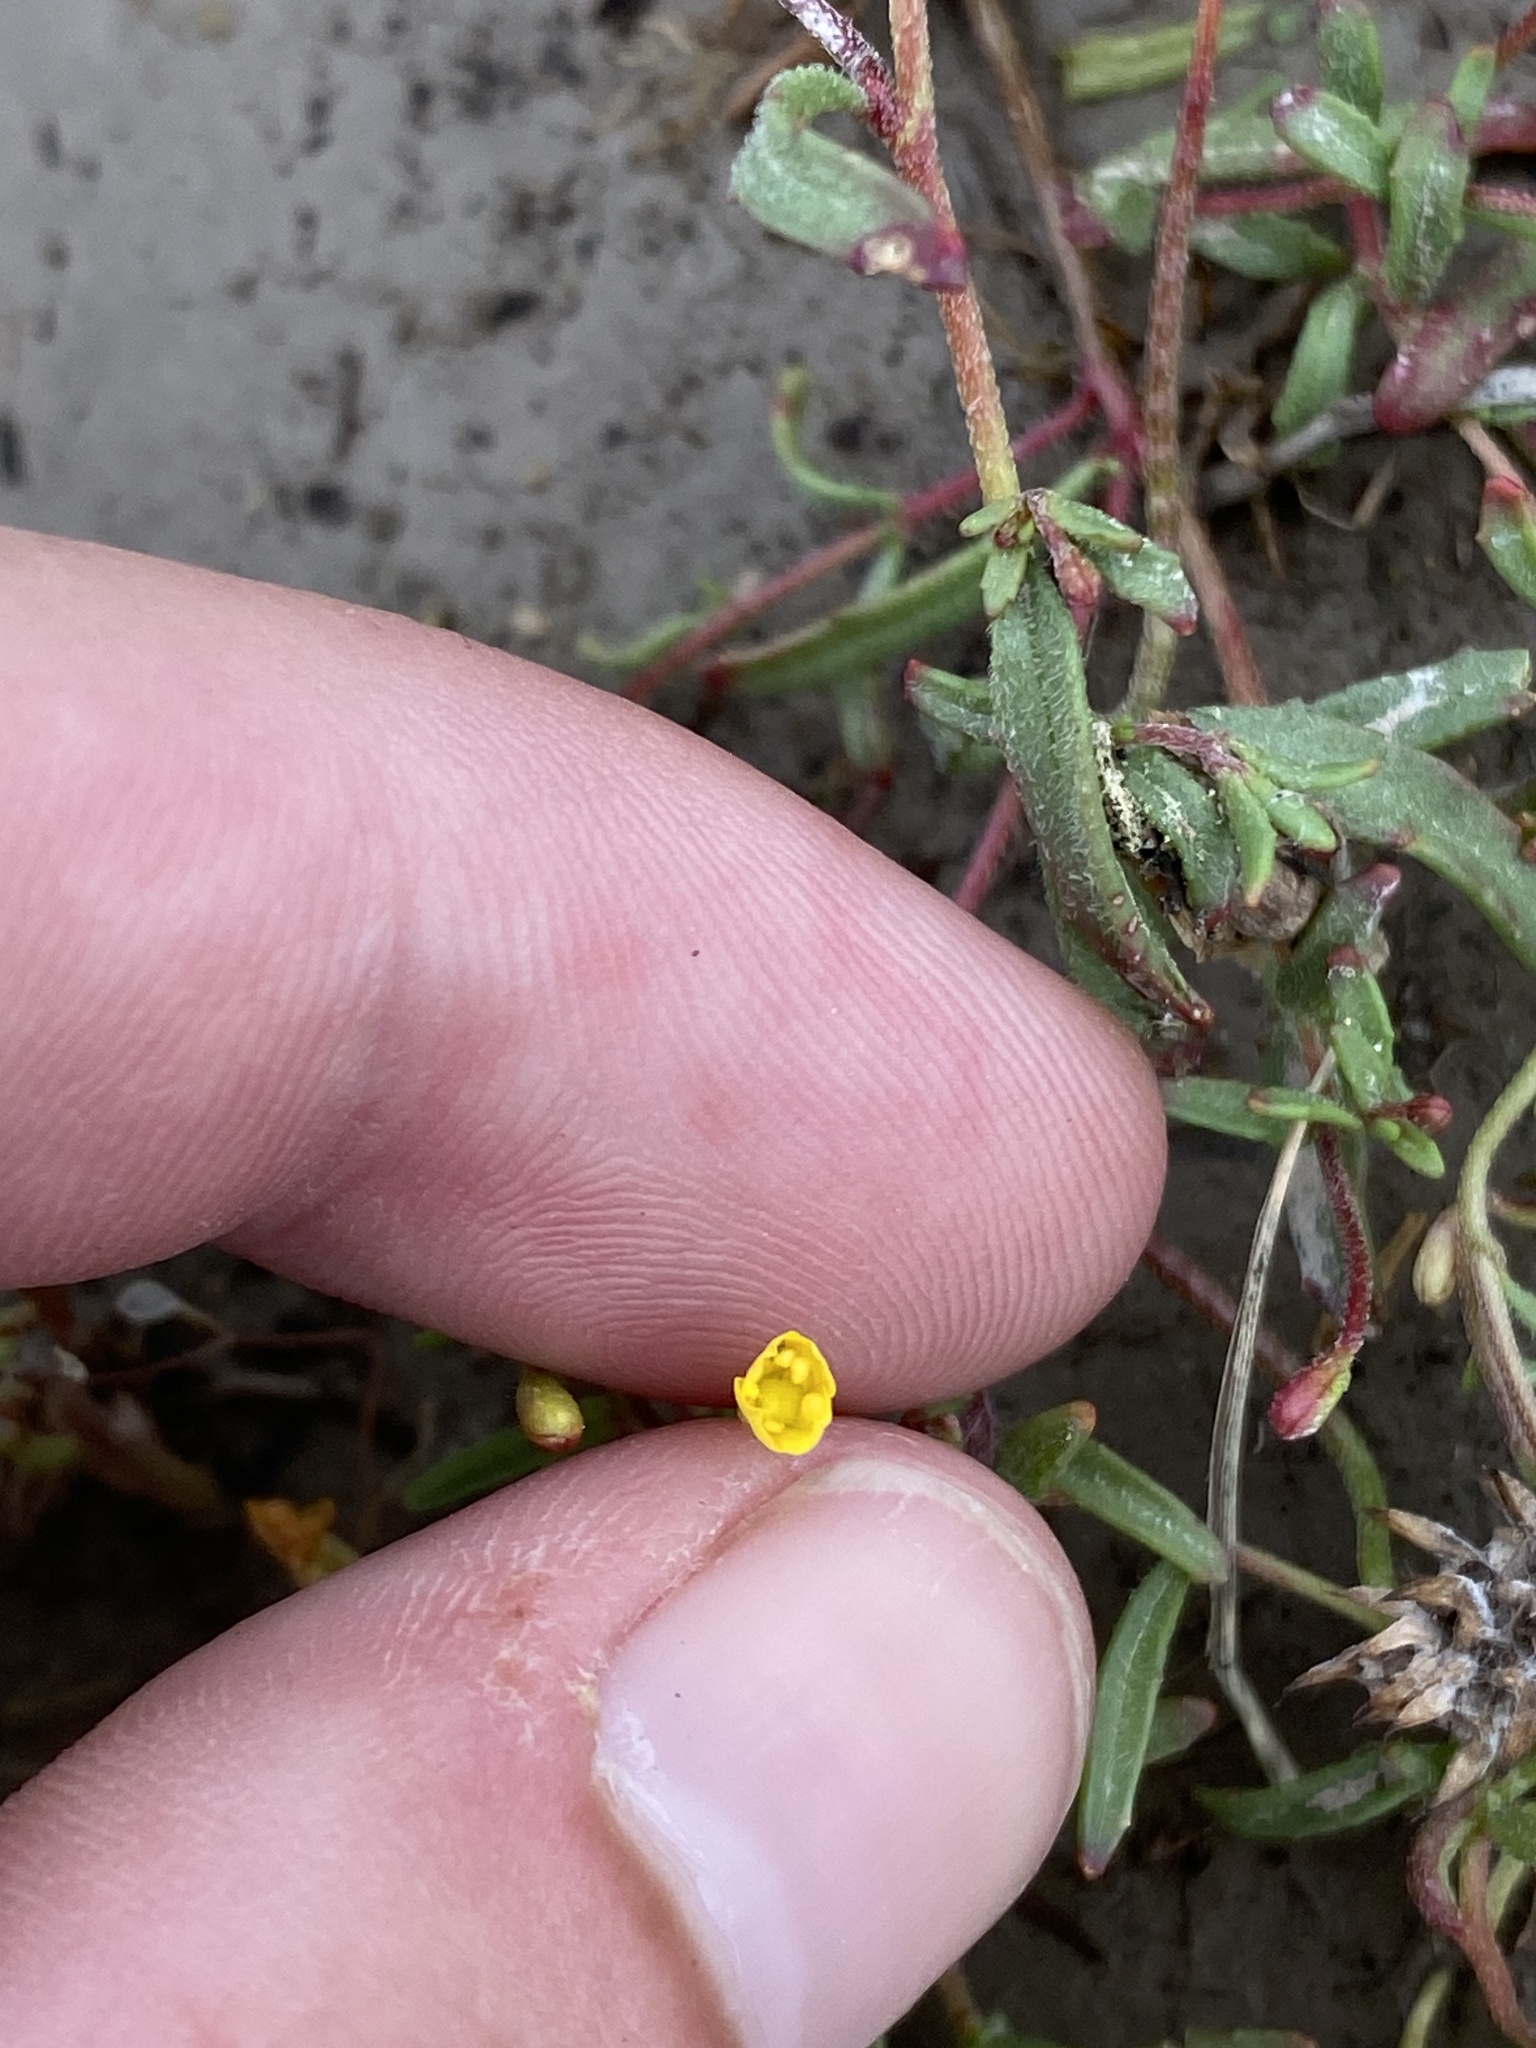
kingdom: Plantae
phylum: Tracheophyta
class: Magnoliopsida
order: Myrtales
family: Onagraceae
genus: Camissonia
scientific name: Camissonia contorta
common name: Contorted suncup
